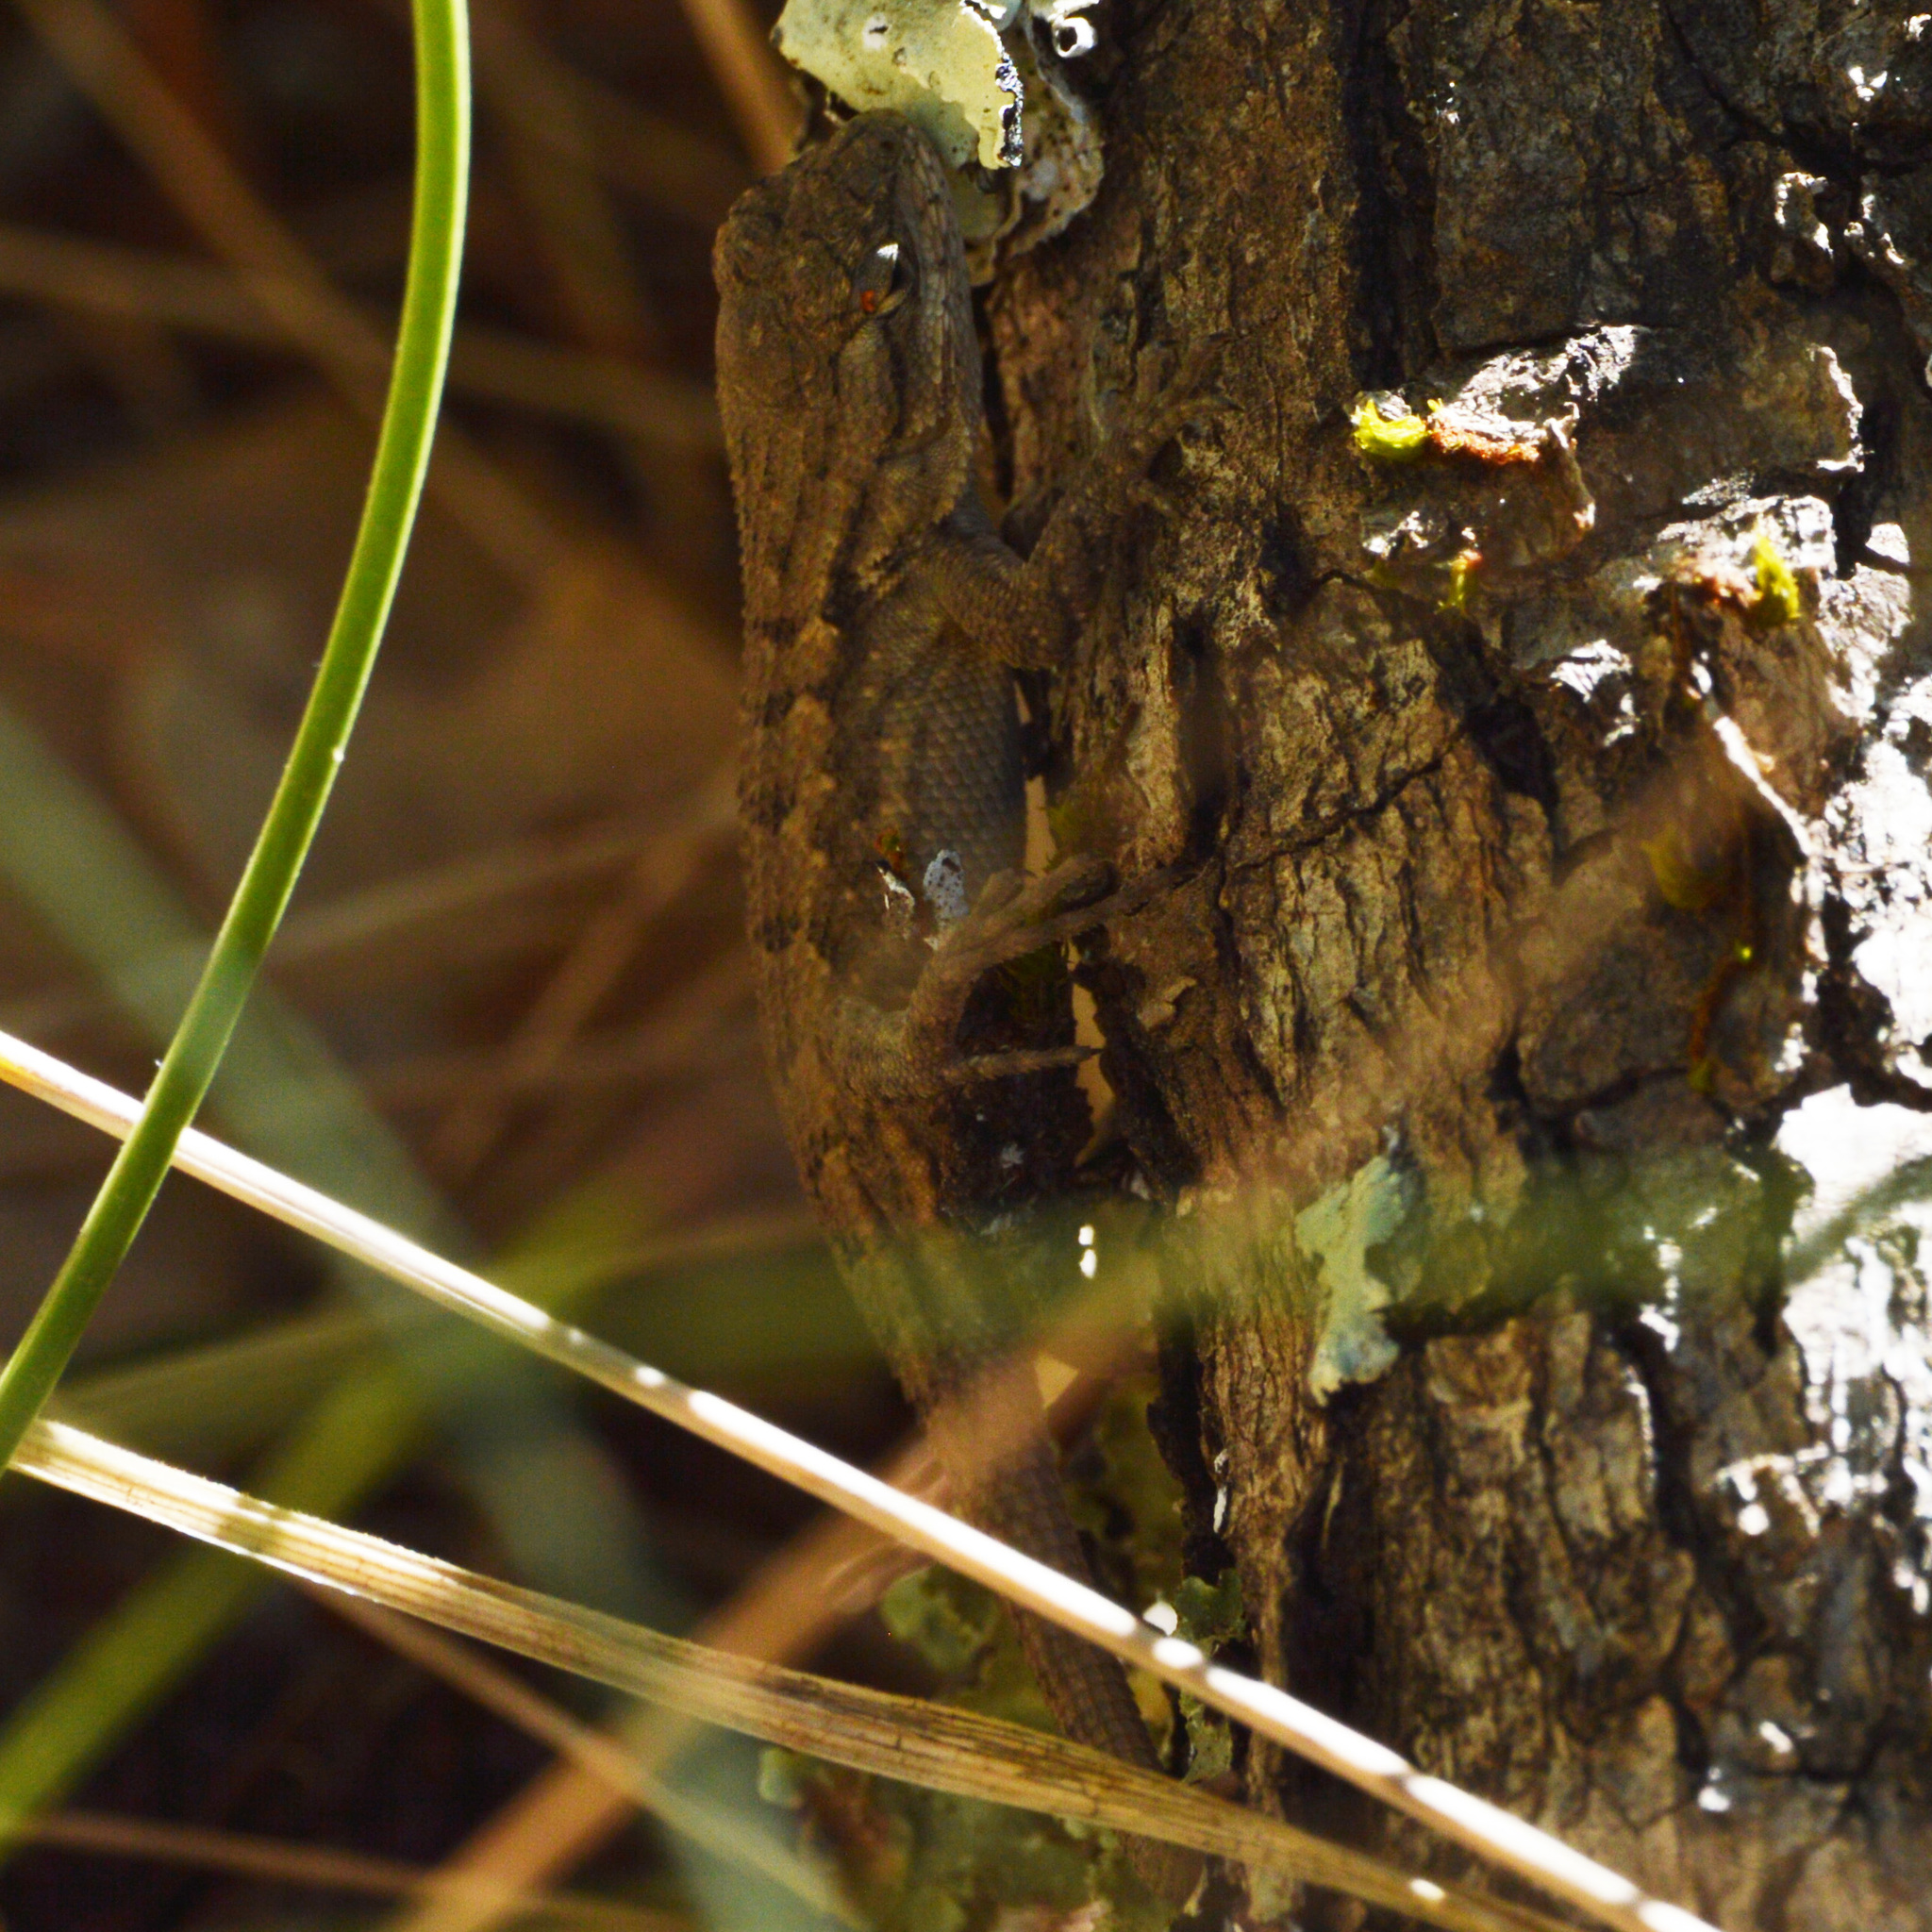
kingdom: Animalia
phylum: Chordata
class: Squamata
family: Phrynosomatidae
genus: Sceloporus
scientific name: Sceloporus occidentalis
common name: Western fence lizard
